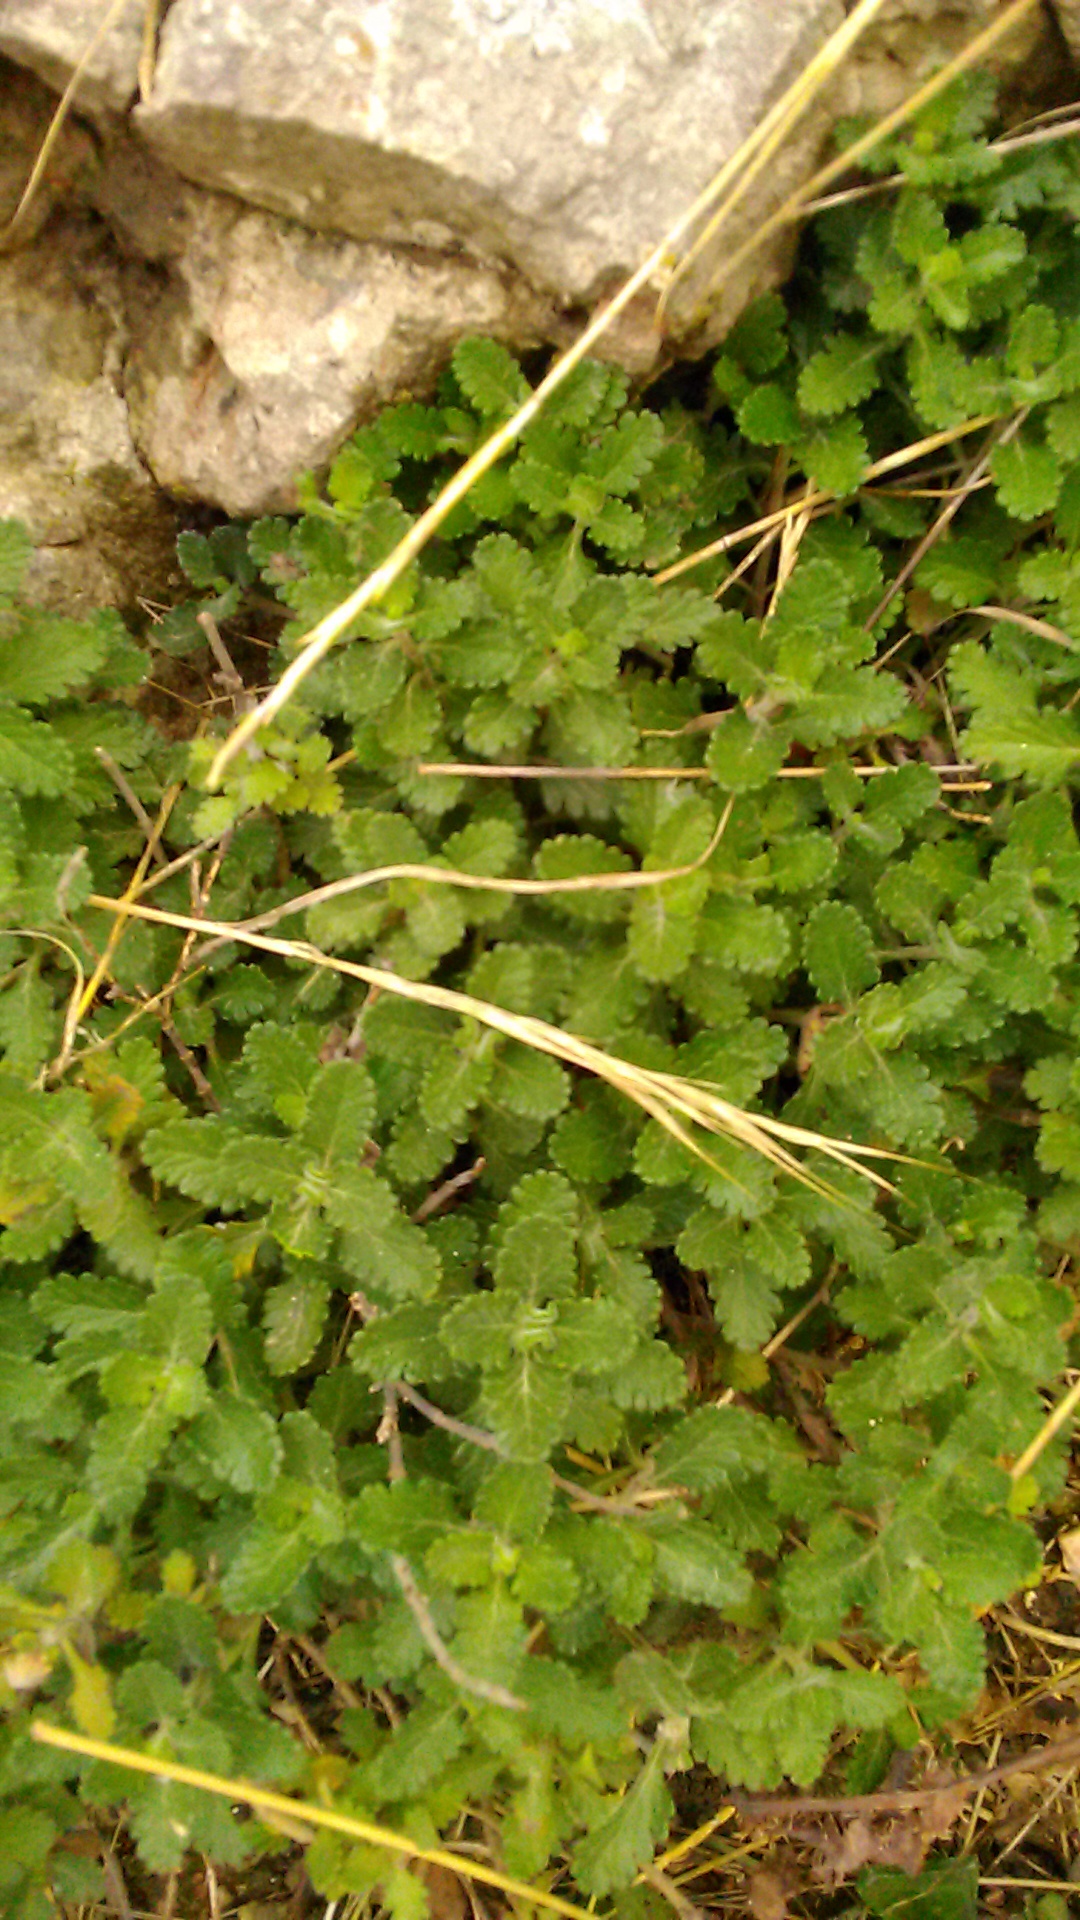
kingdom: Plantae
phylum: Tracheophyta
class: Magnoliopsida
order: Lamiales
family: Lamiaceae
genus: Teucrium
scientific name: Teucrium chamaedrys
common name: Wall germander
